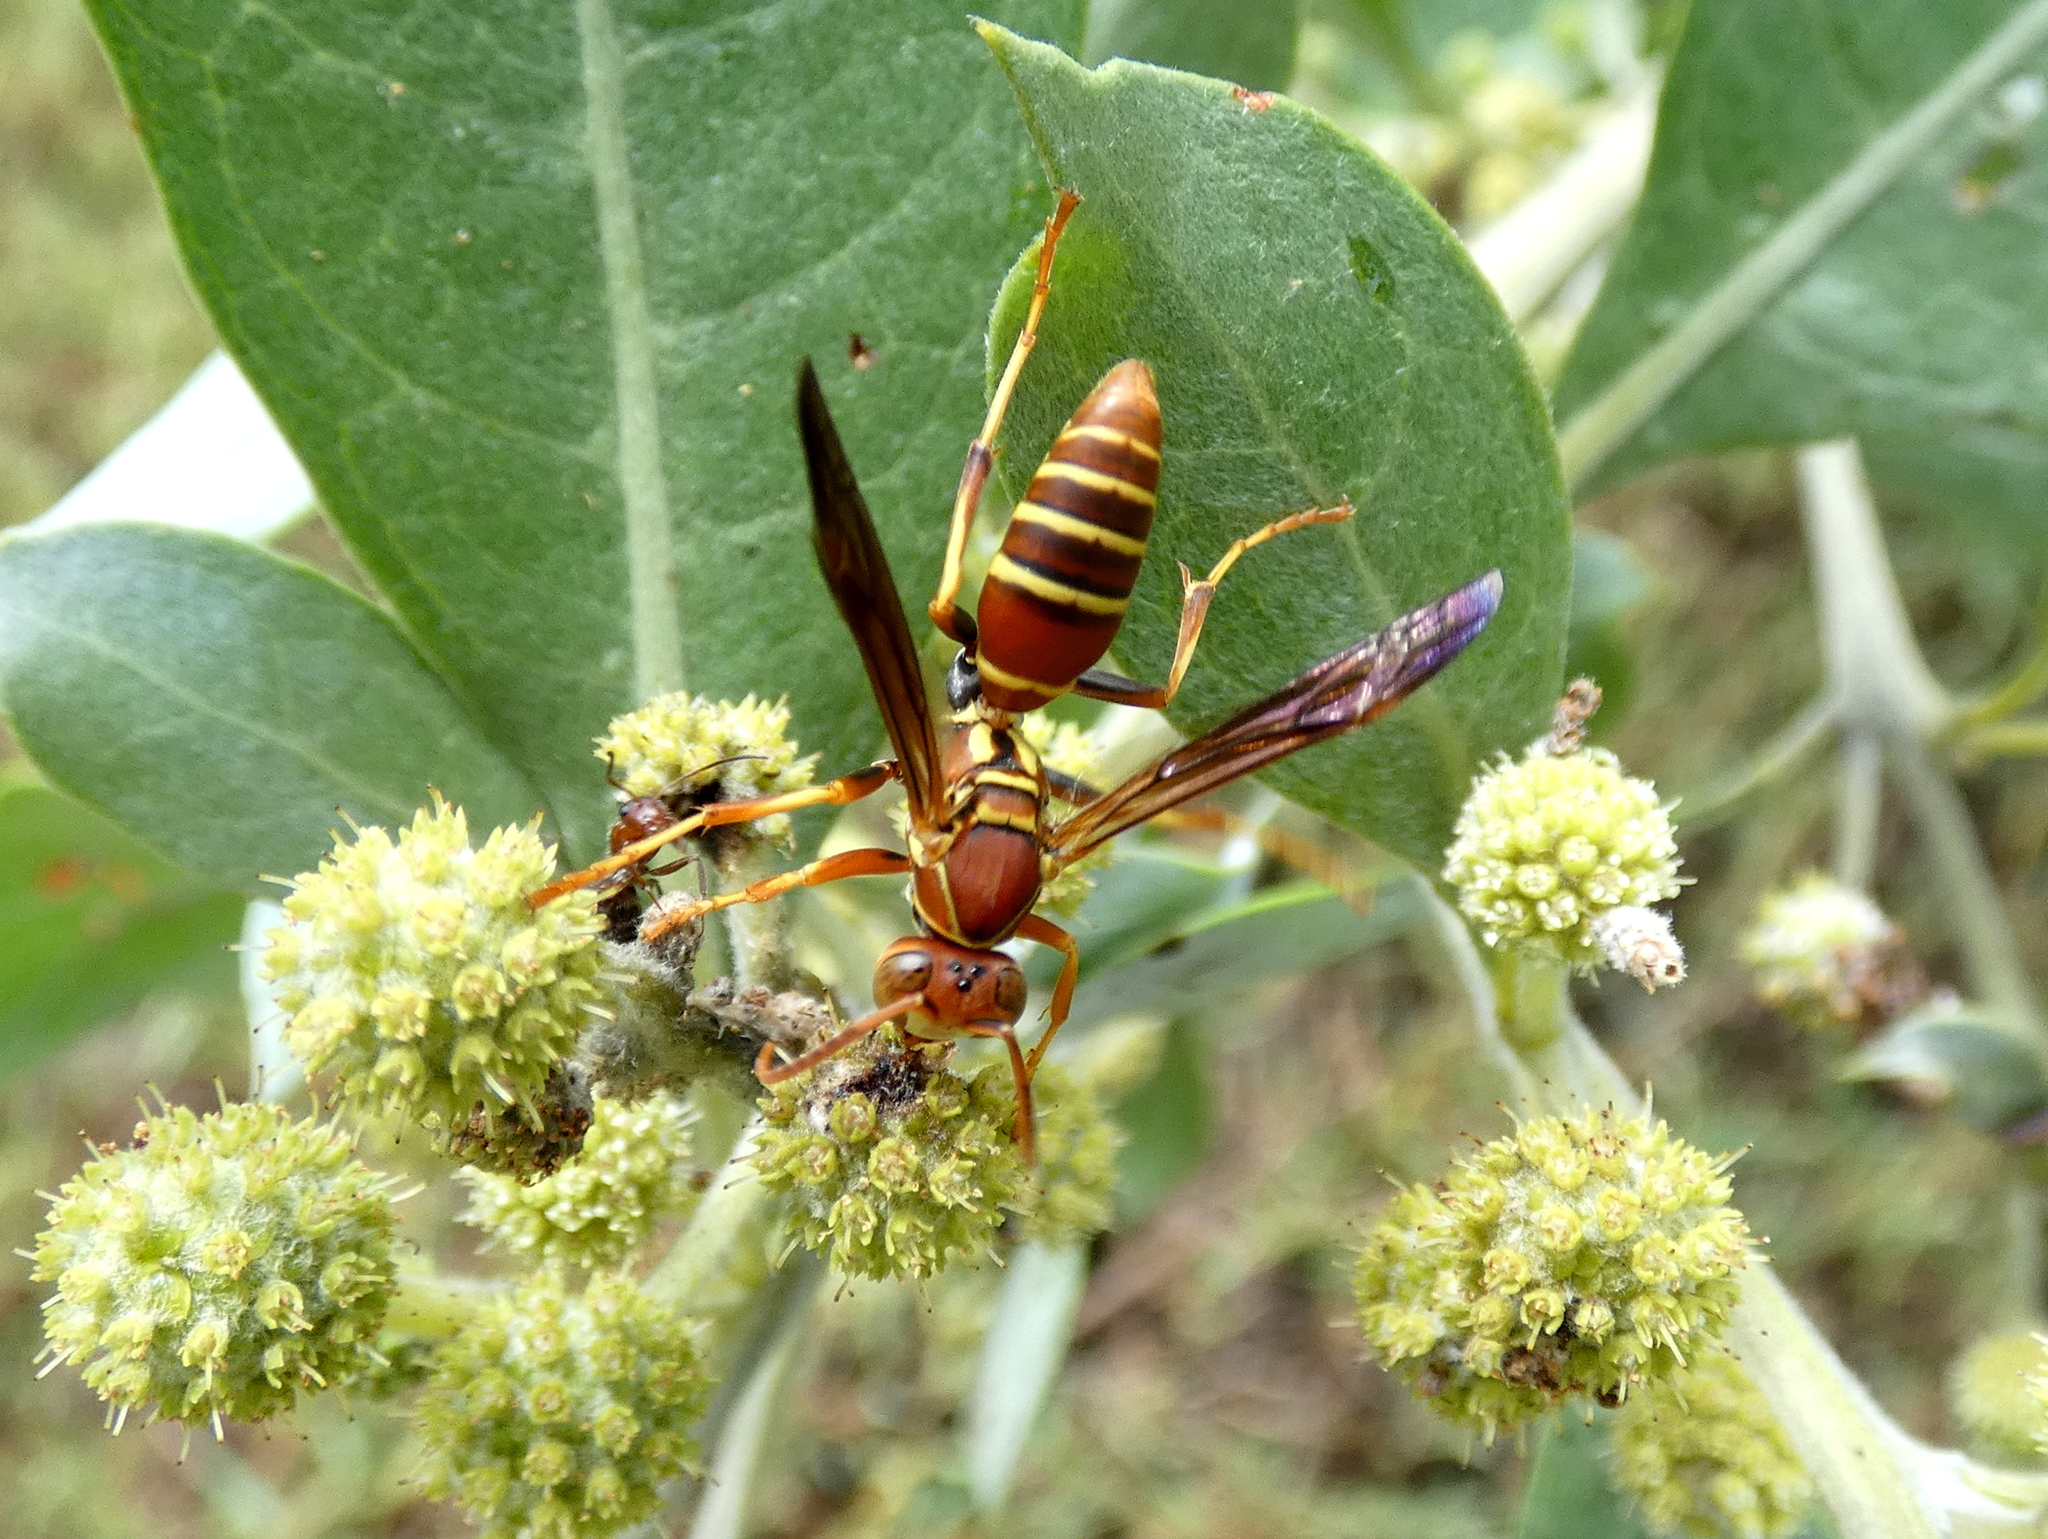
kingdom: Animalia
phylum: Arthropoda
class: Insecta
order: Hymenoptera
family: Eumenidae
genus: Polistes
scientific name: Polistes dorsalis
